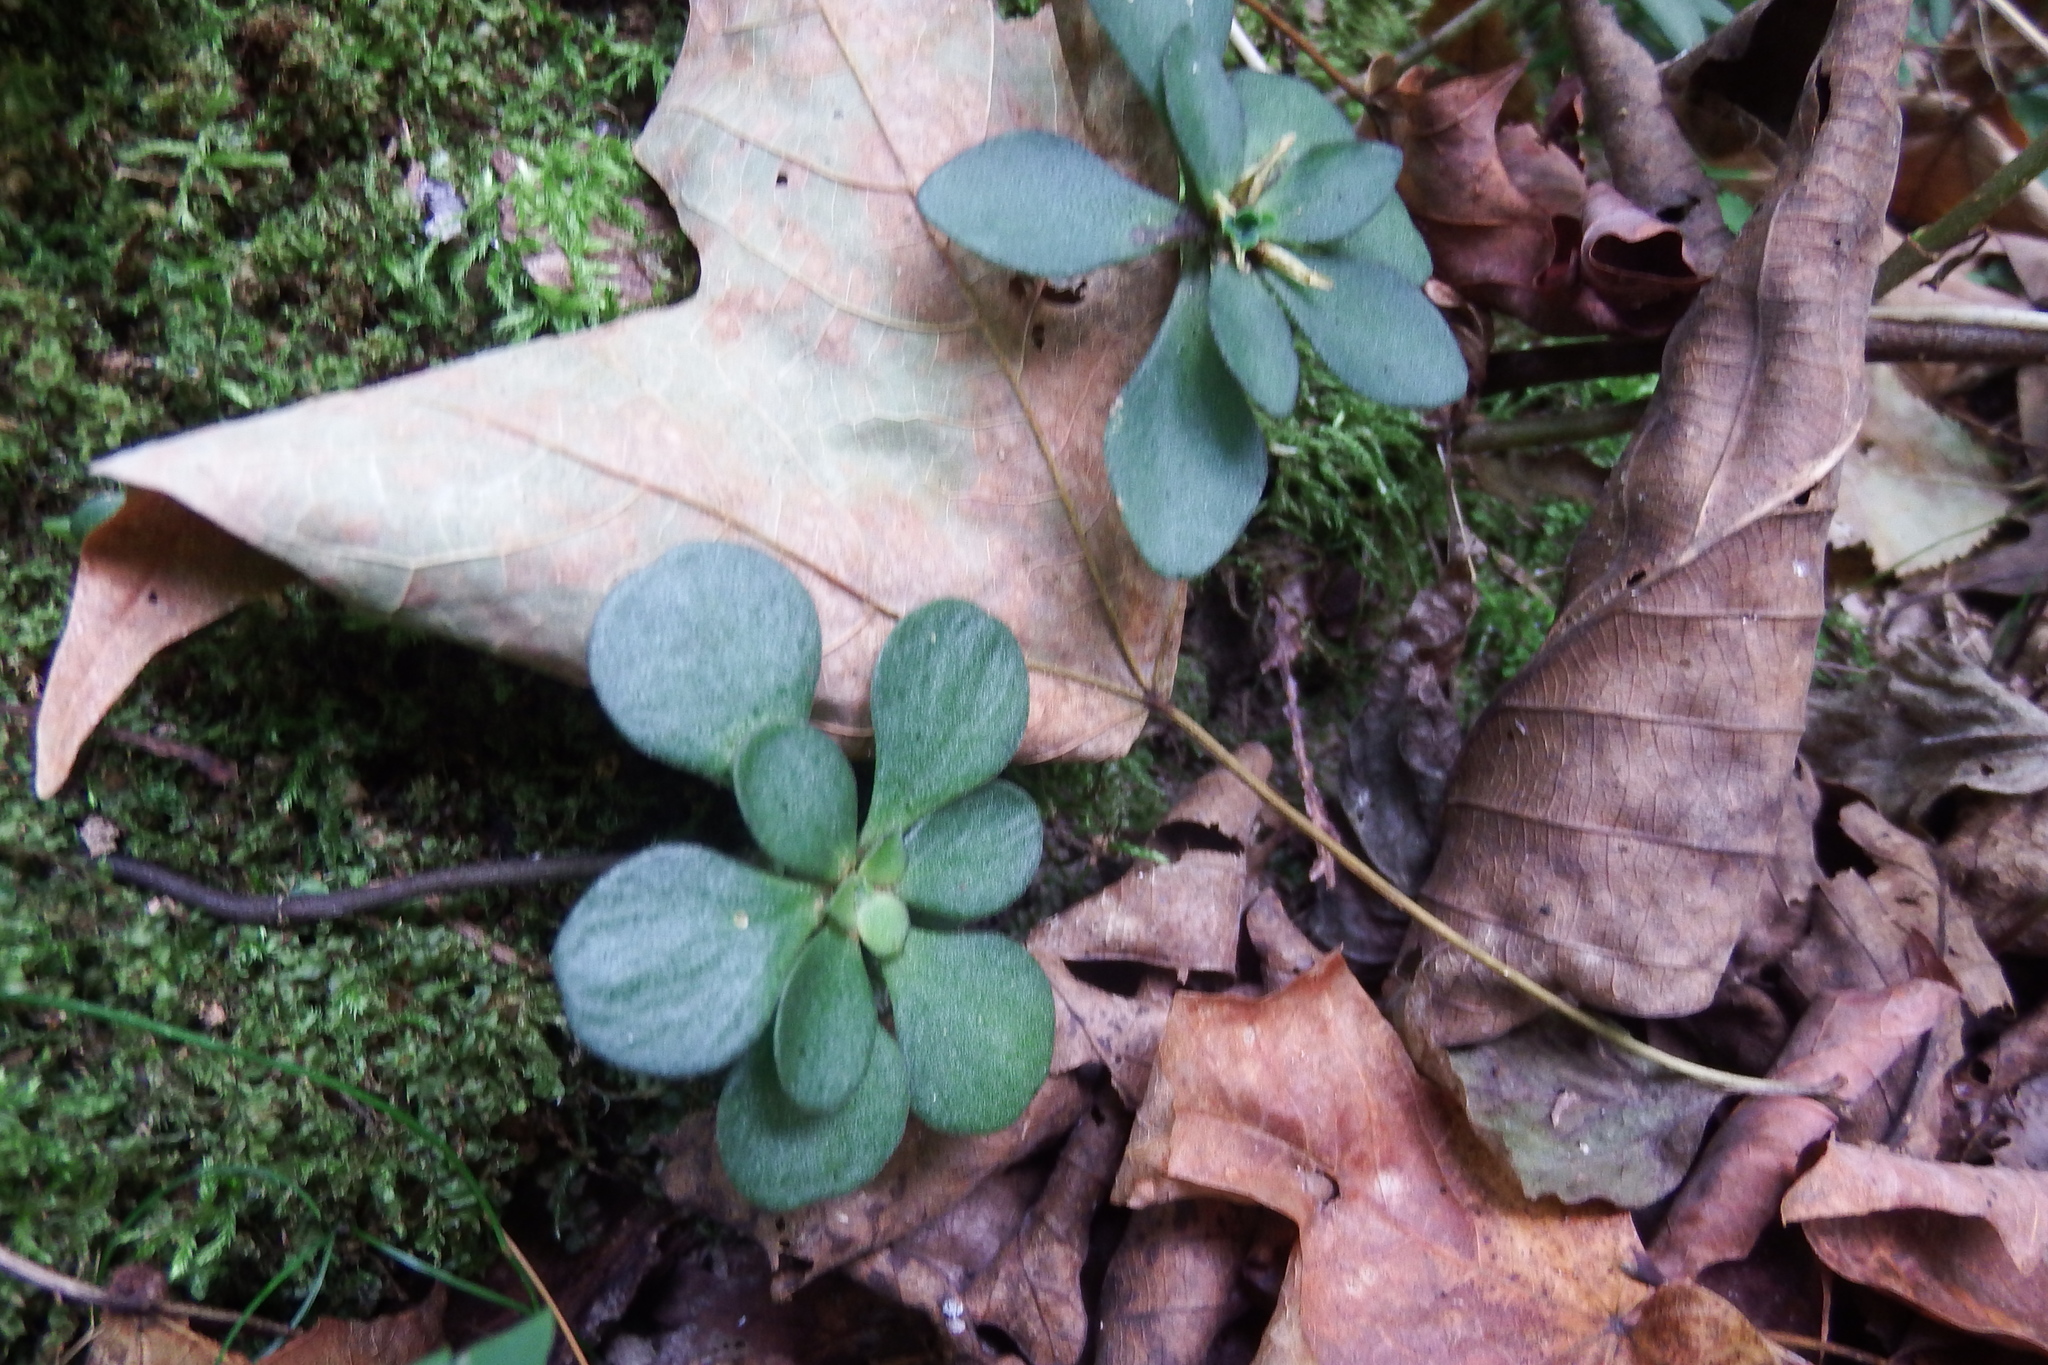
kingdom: Plantae
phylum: Tracheophyta
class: Magnoliopsida
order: Saxifragales
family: Crassulaceae
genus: Sedum
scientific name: Sedum ternatum
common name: Wild stonecrop
